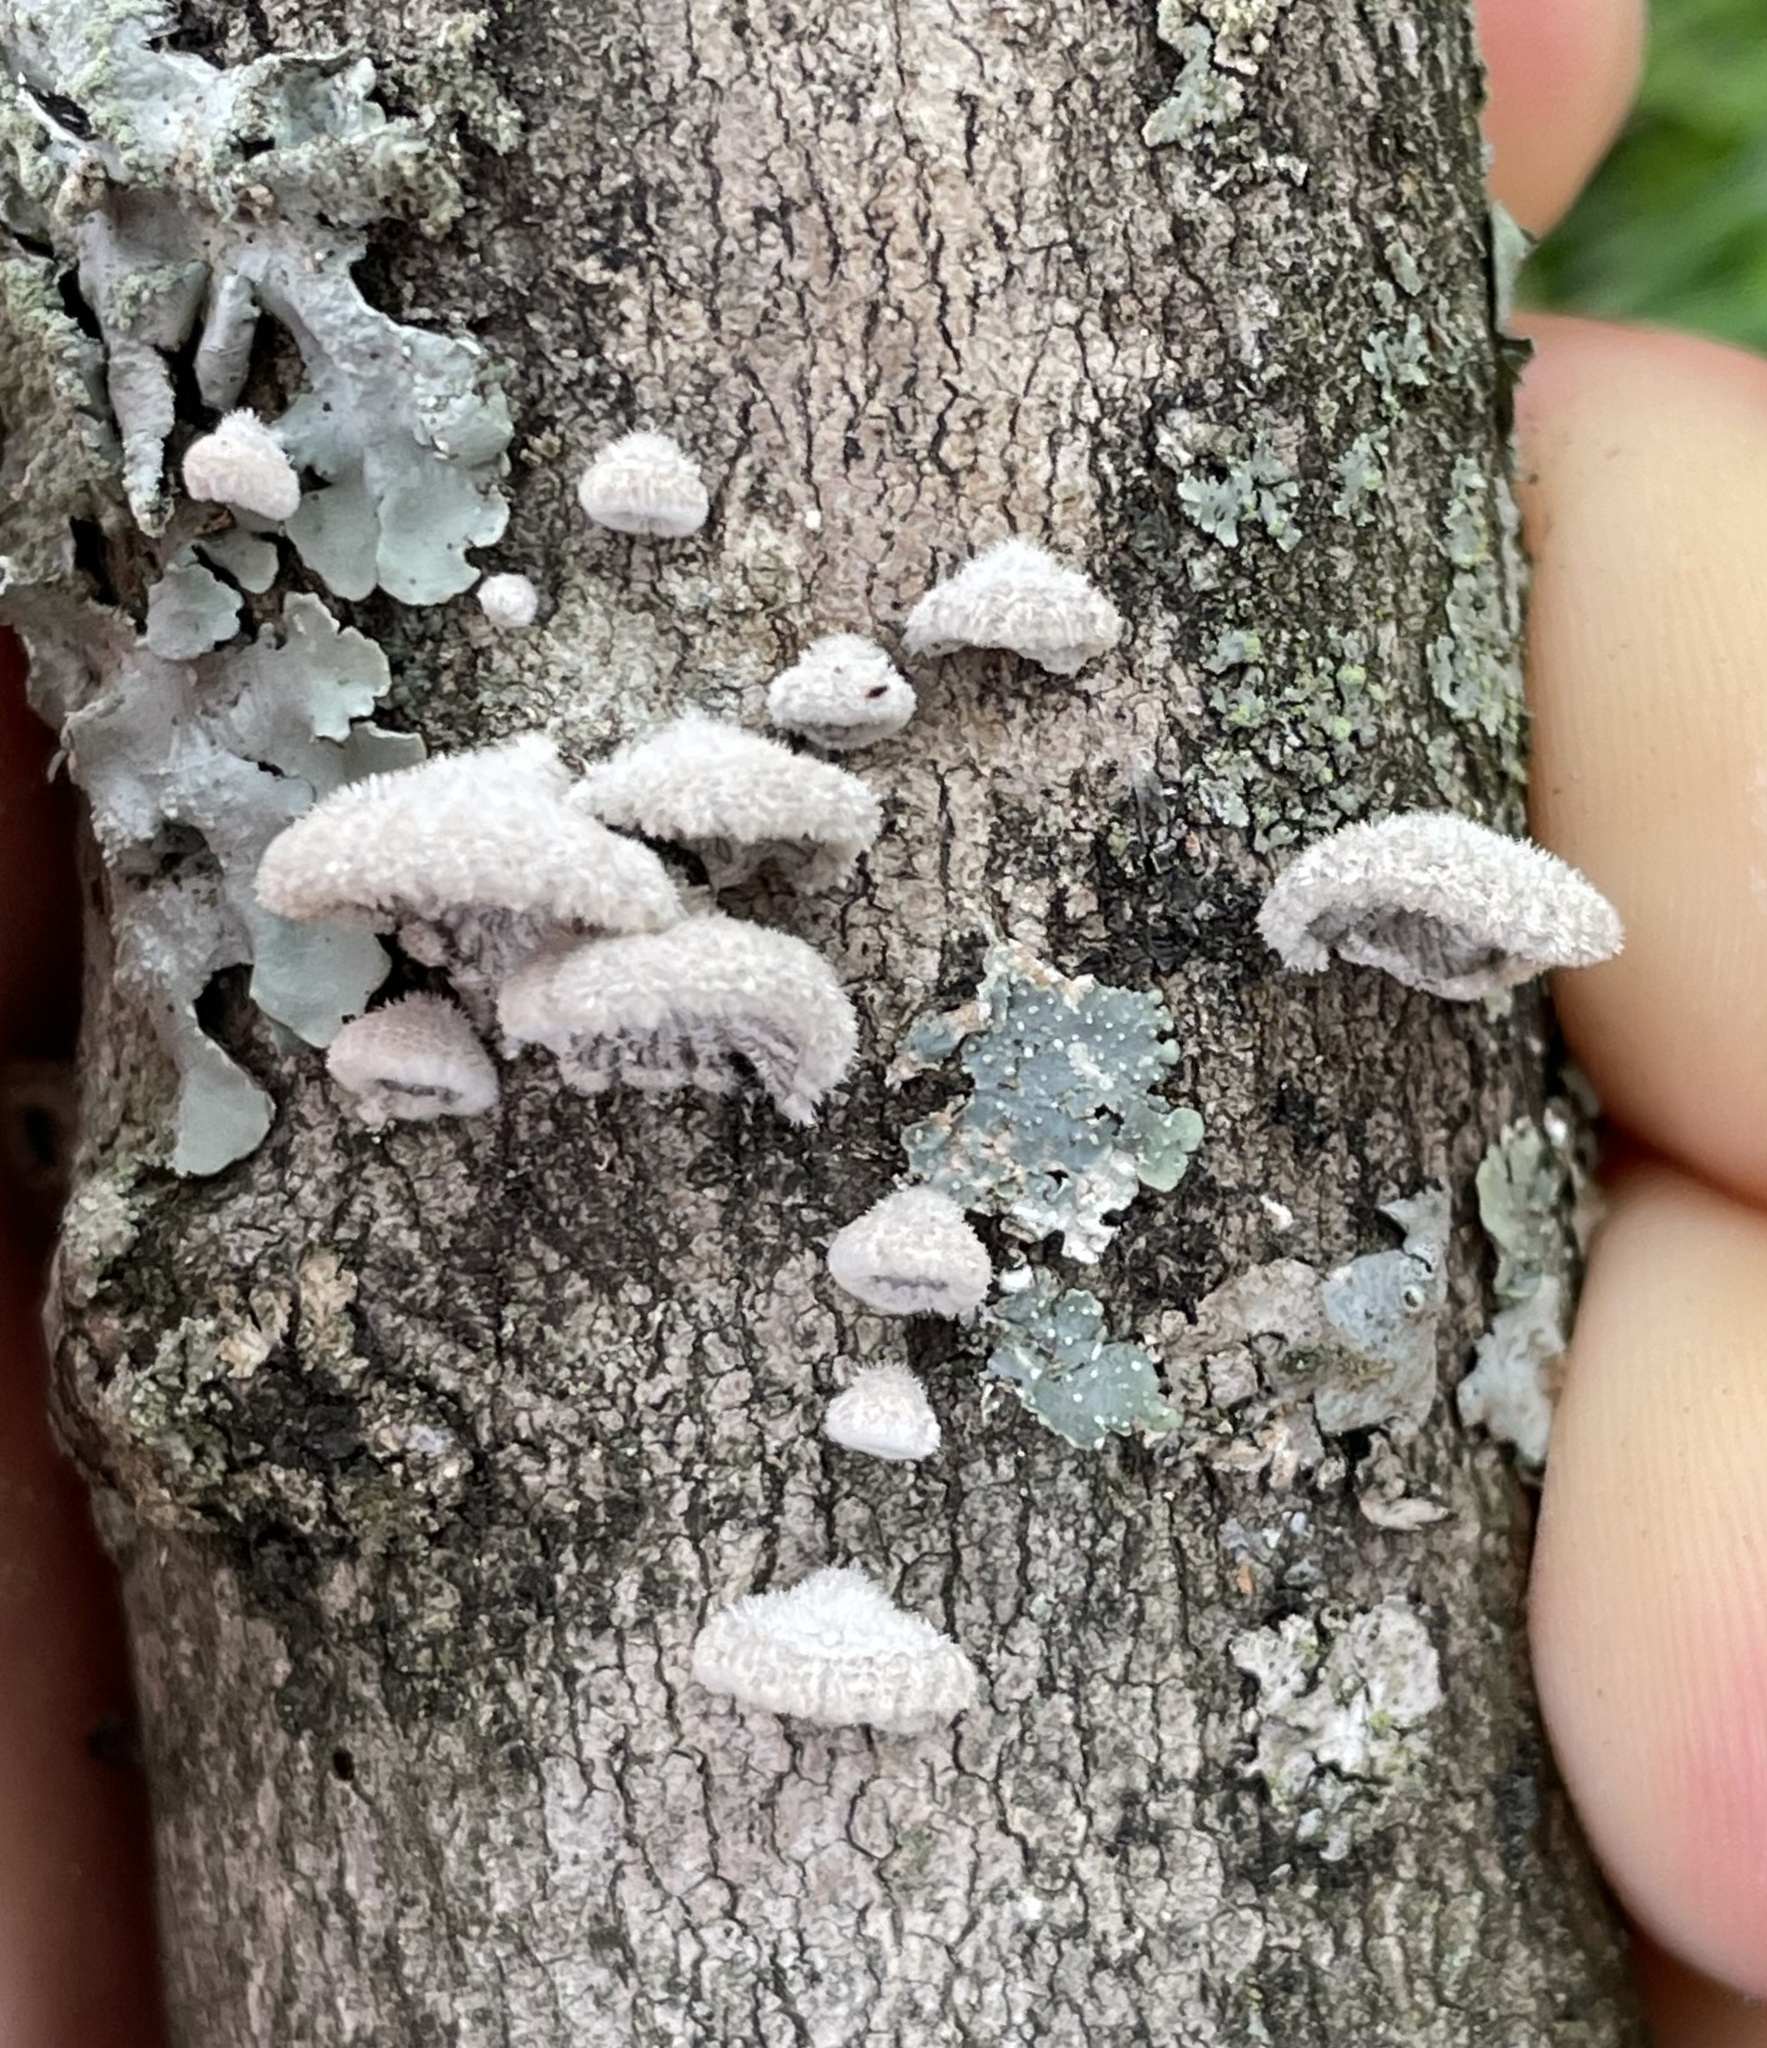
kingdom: Fungi
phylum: Basidiomycota
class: Agaricomycetes
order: Agaricales
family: Schizophyllaceae
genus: Schizophyllum
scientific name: Schizophyllum commune
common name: Common porecrust
